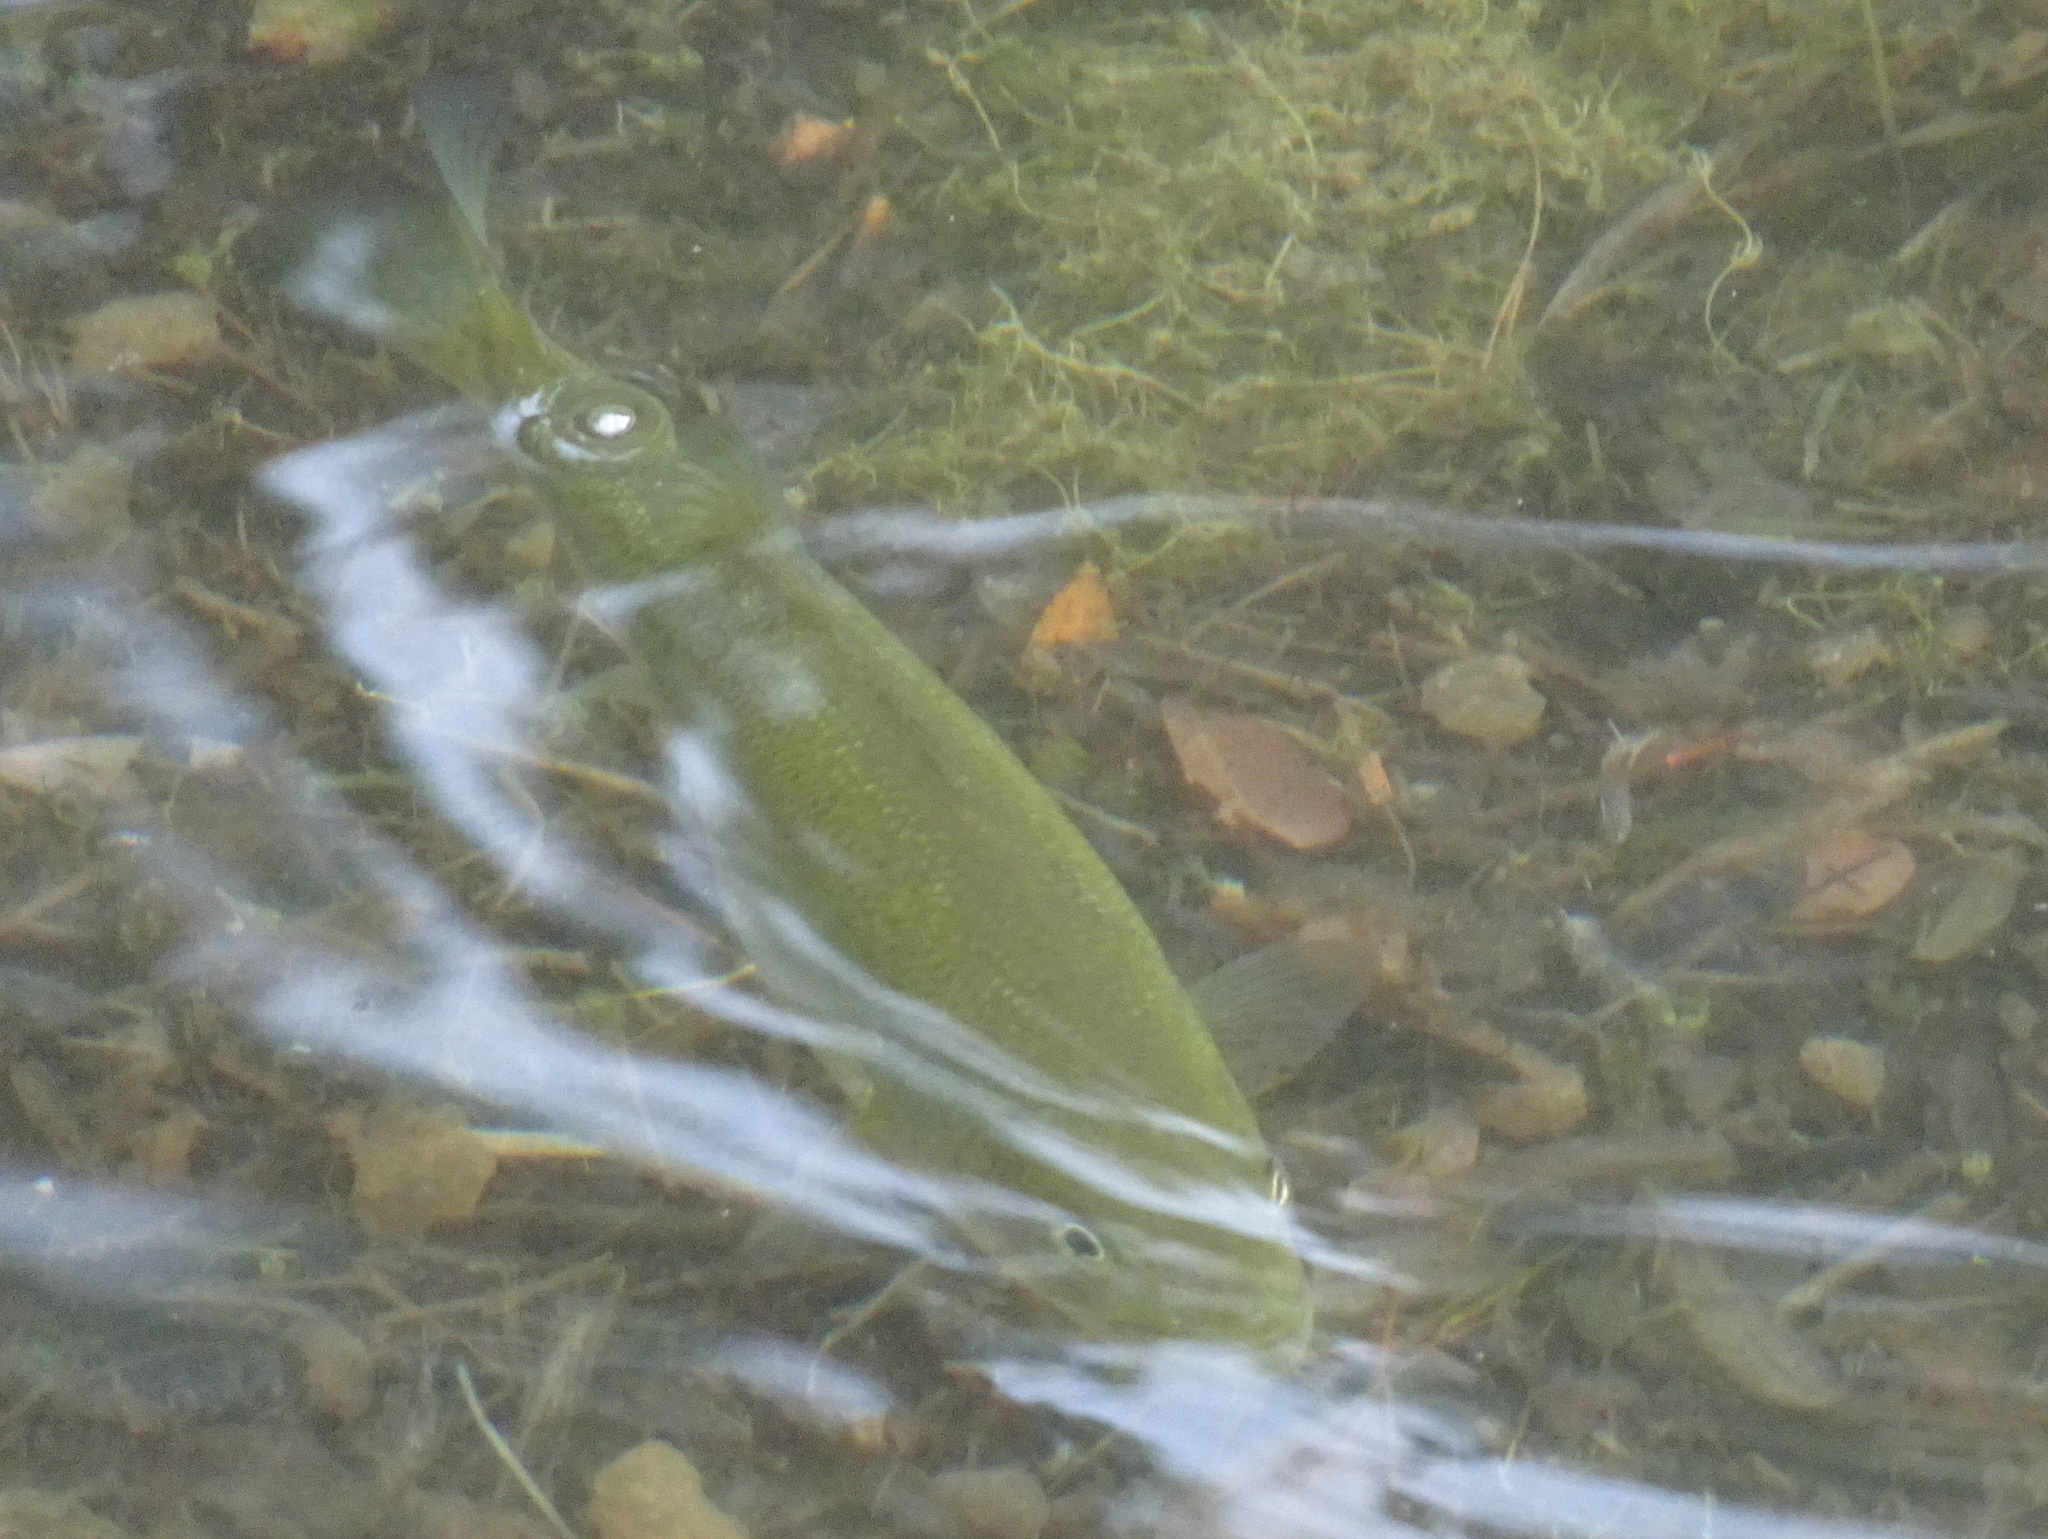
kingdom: Animalia
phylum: Chordata
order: Perciformes
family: Centrarchidae
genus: Micropterus
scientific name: Micropterus
